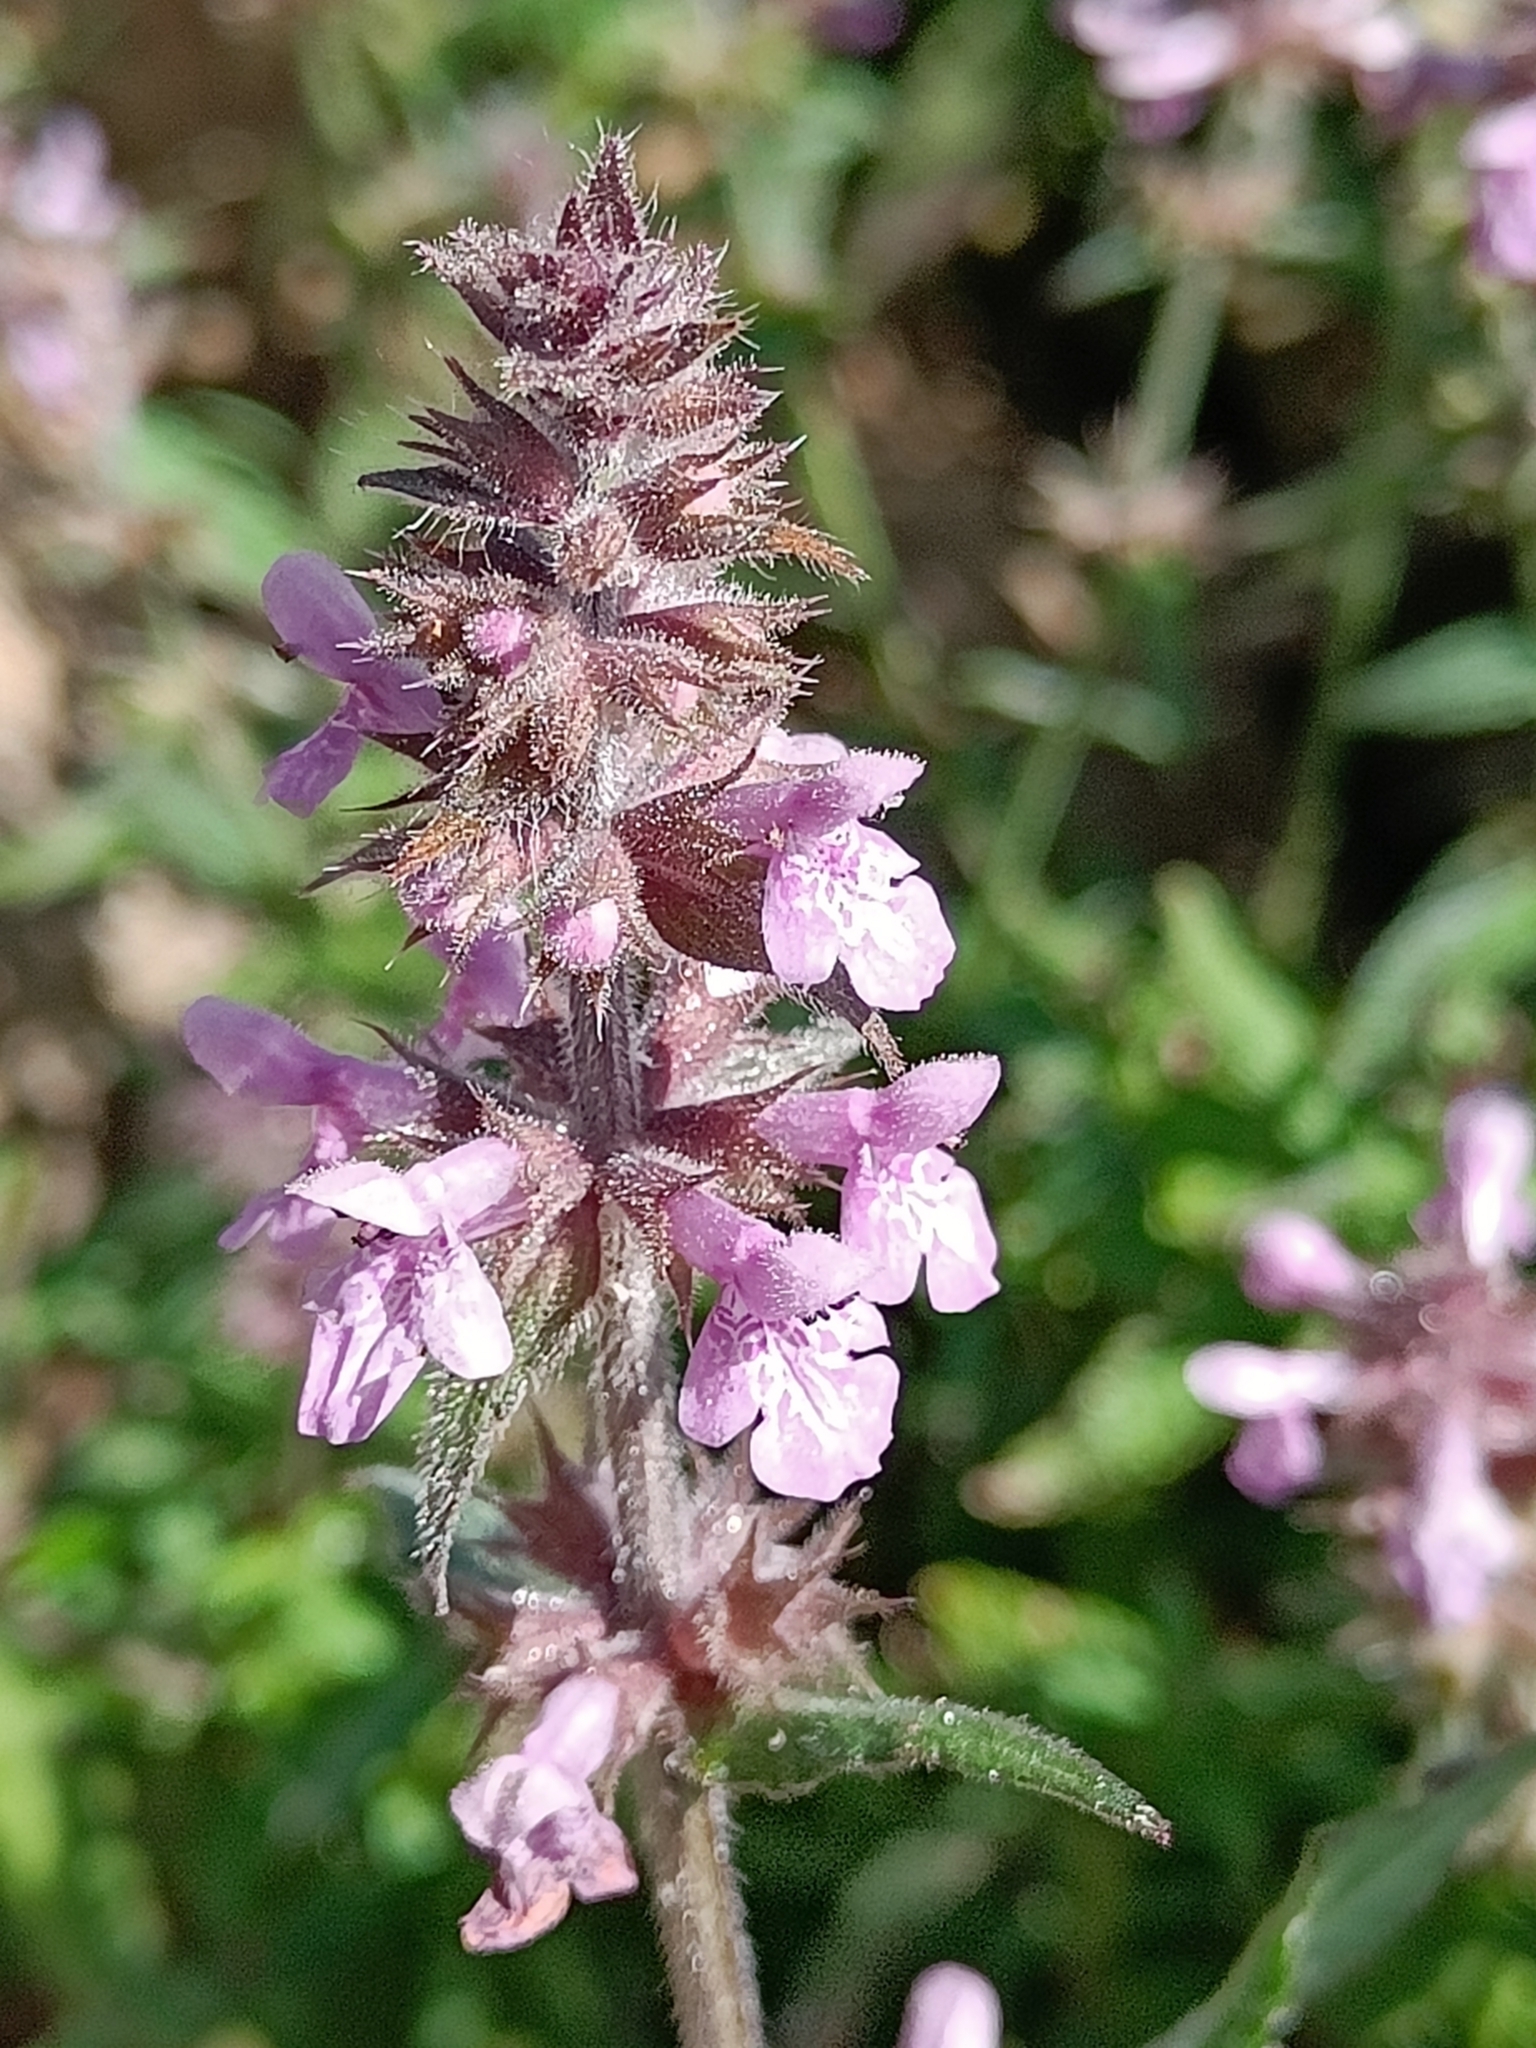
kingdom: Plantae
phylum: Tracheophyta
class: Magnoliopsida
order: Lamiales
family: Lamiaceae
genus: Stachys
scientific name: Stachys palustris
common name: Marsh woundwort
